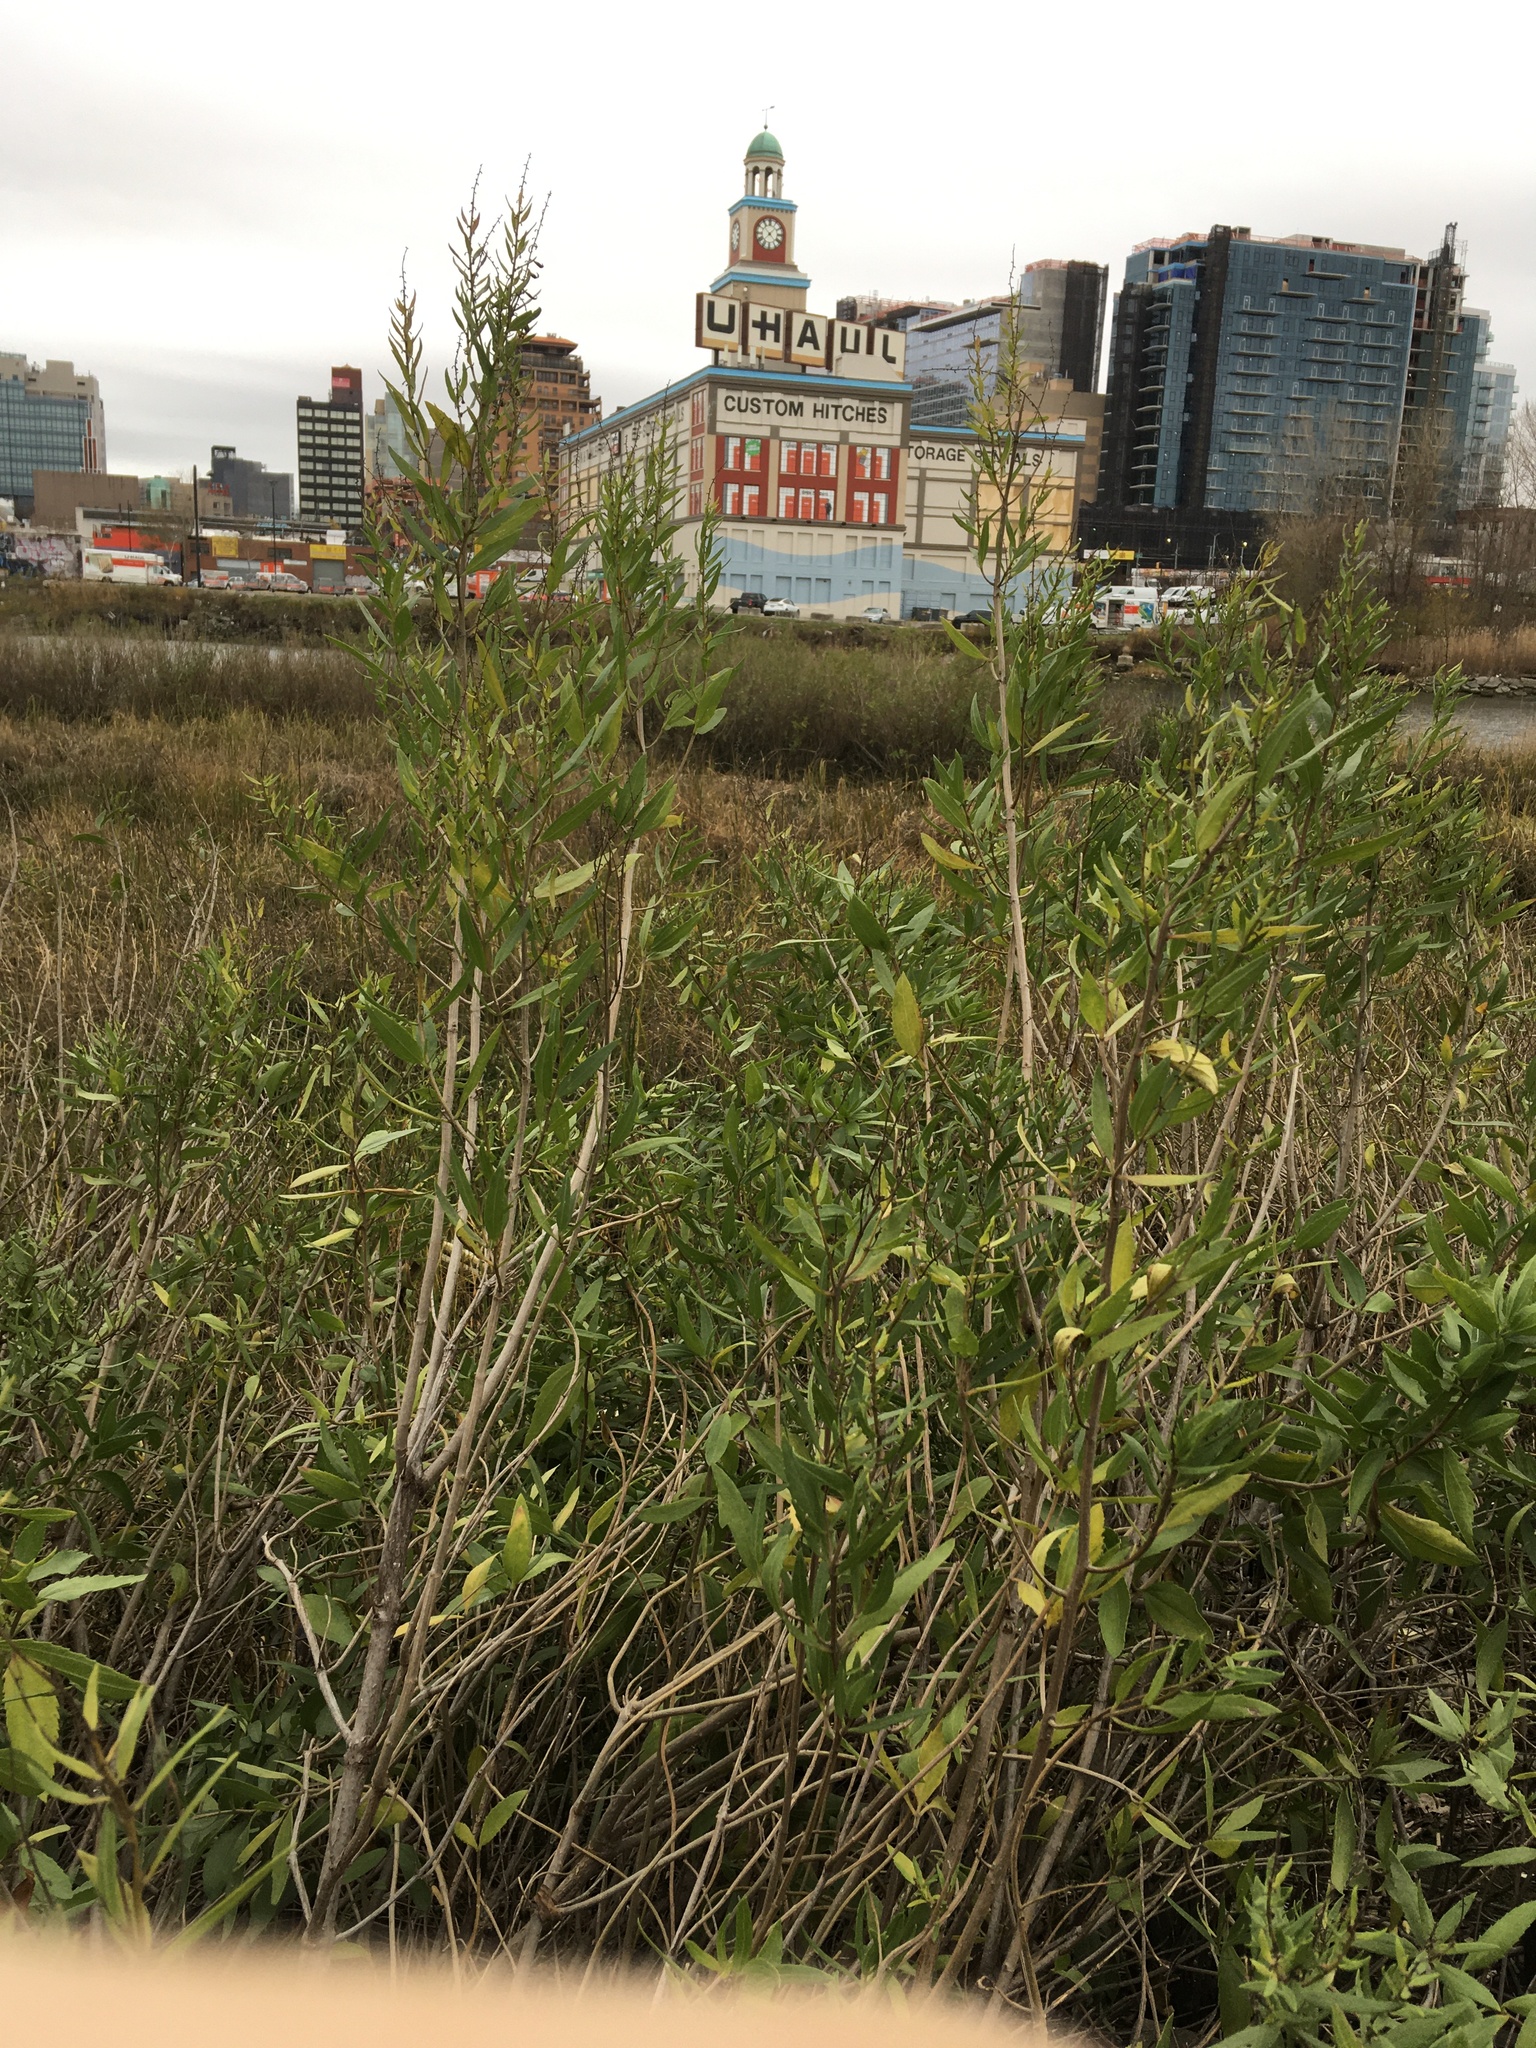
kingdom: Plantae
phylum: Tracheophyta
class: Magnoliopsida
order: Asterales
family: Asteraceae
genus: Iva
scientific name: Iva frutescens
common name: Big-leaved marsh-elder
